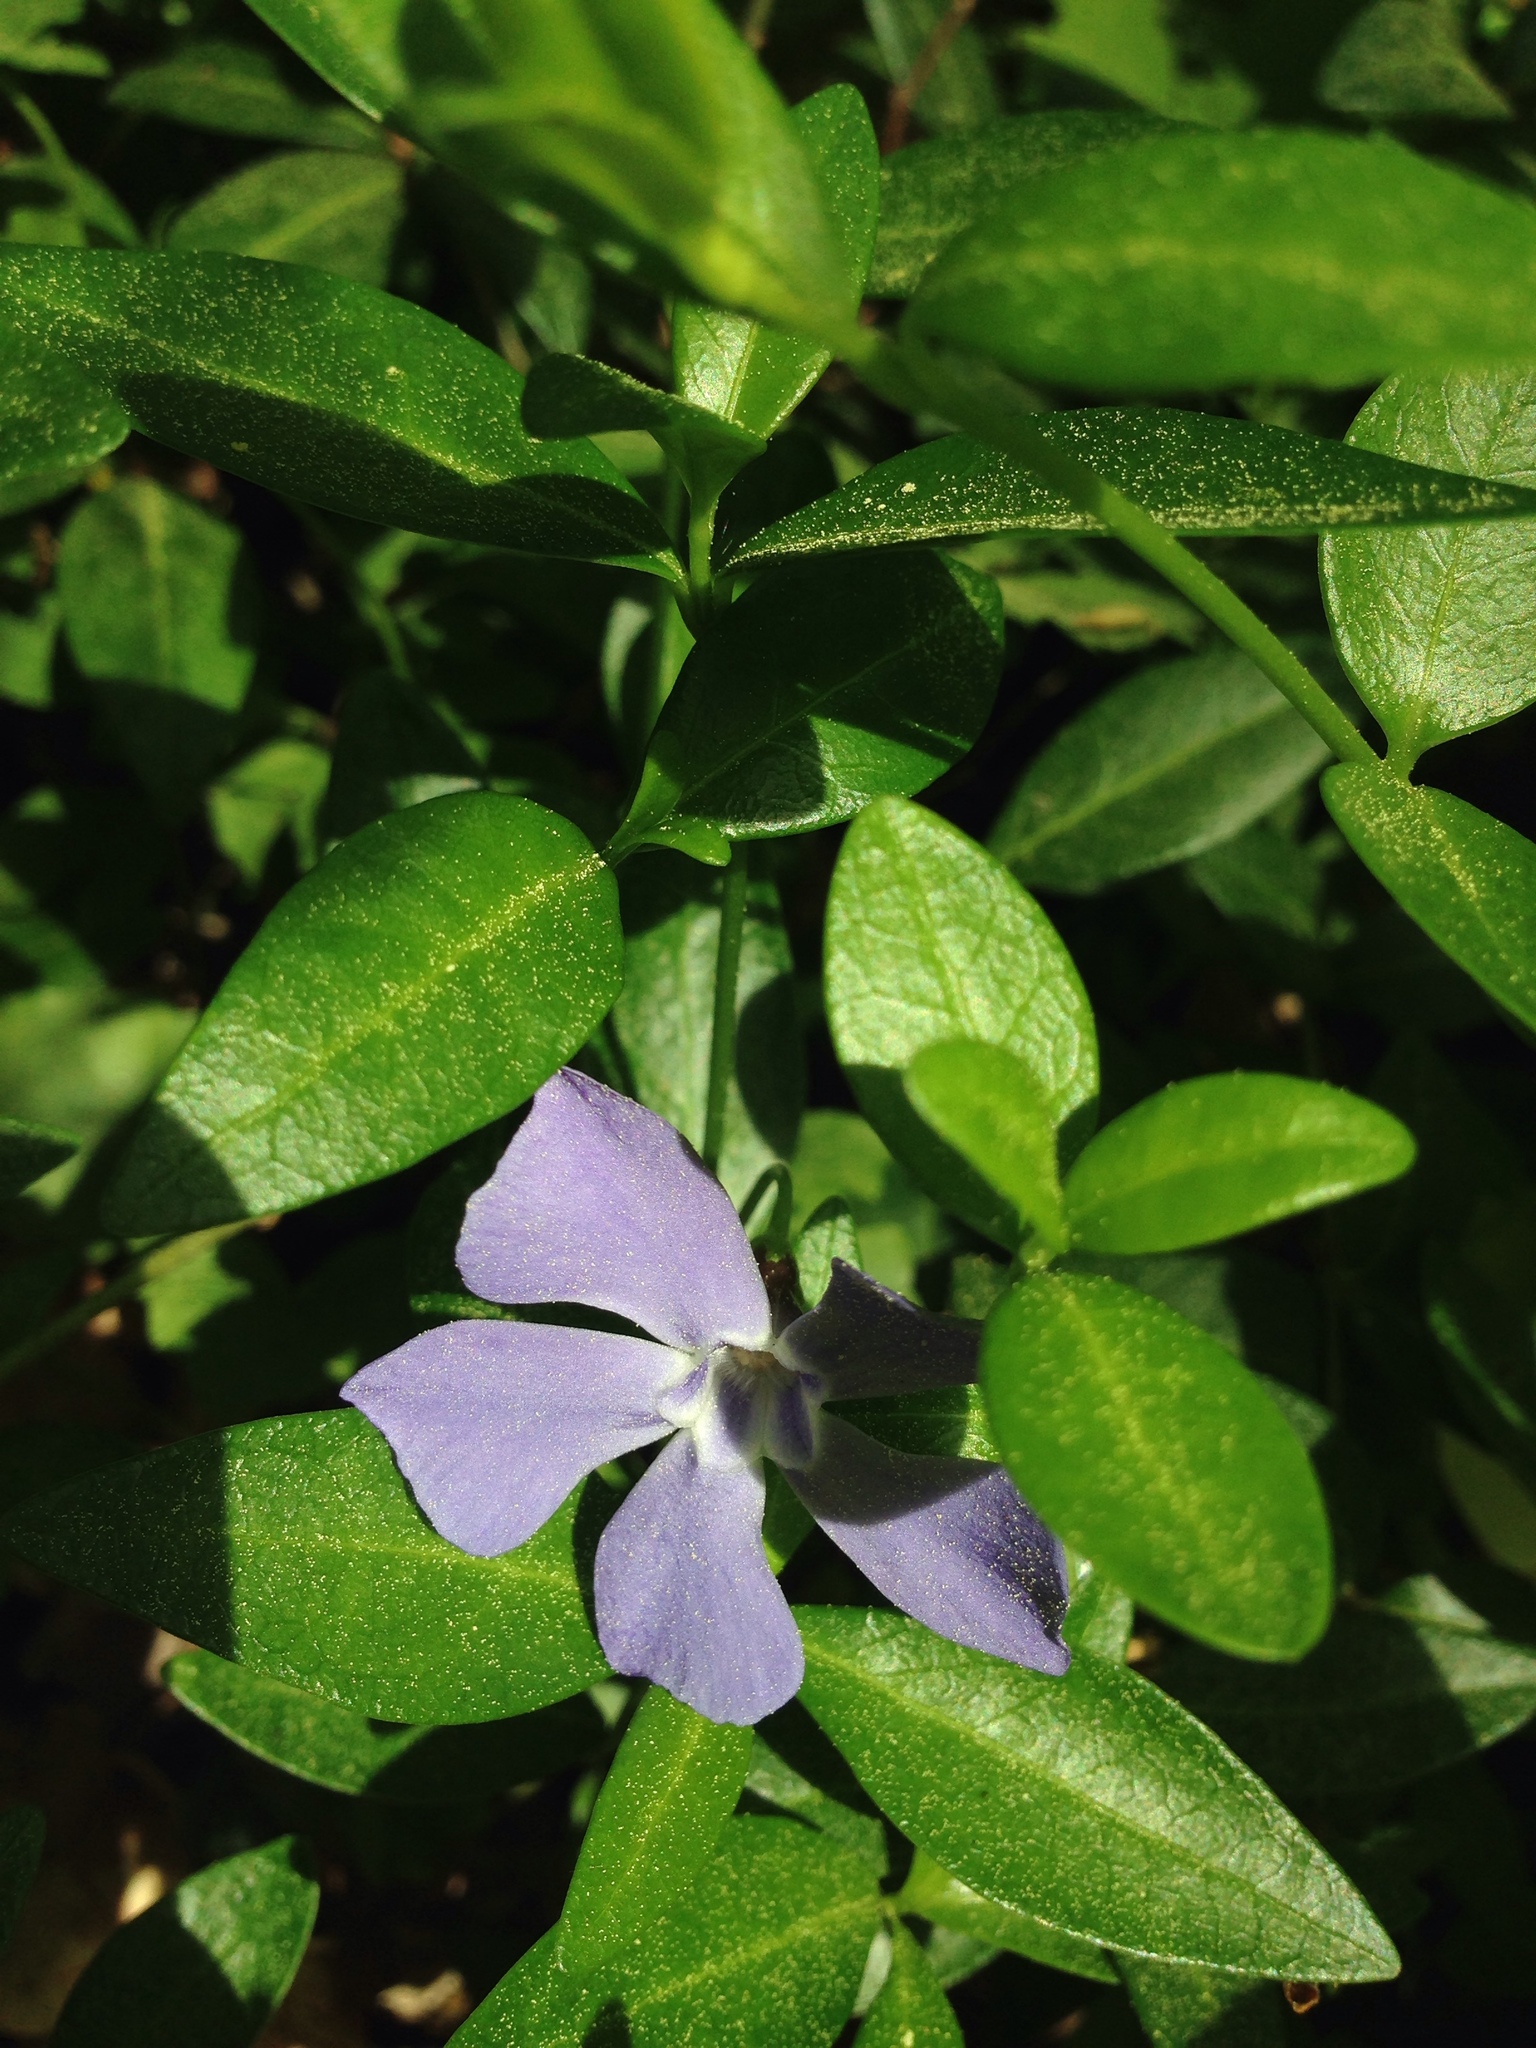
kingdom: Plantae
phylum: Tracheophyta
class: Magnoliopsida
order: Gentianales
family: Apocynaceae
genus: Vinca
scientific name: Vinca minor
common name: Lesser periwinkle
